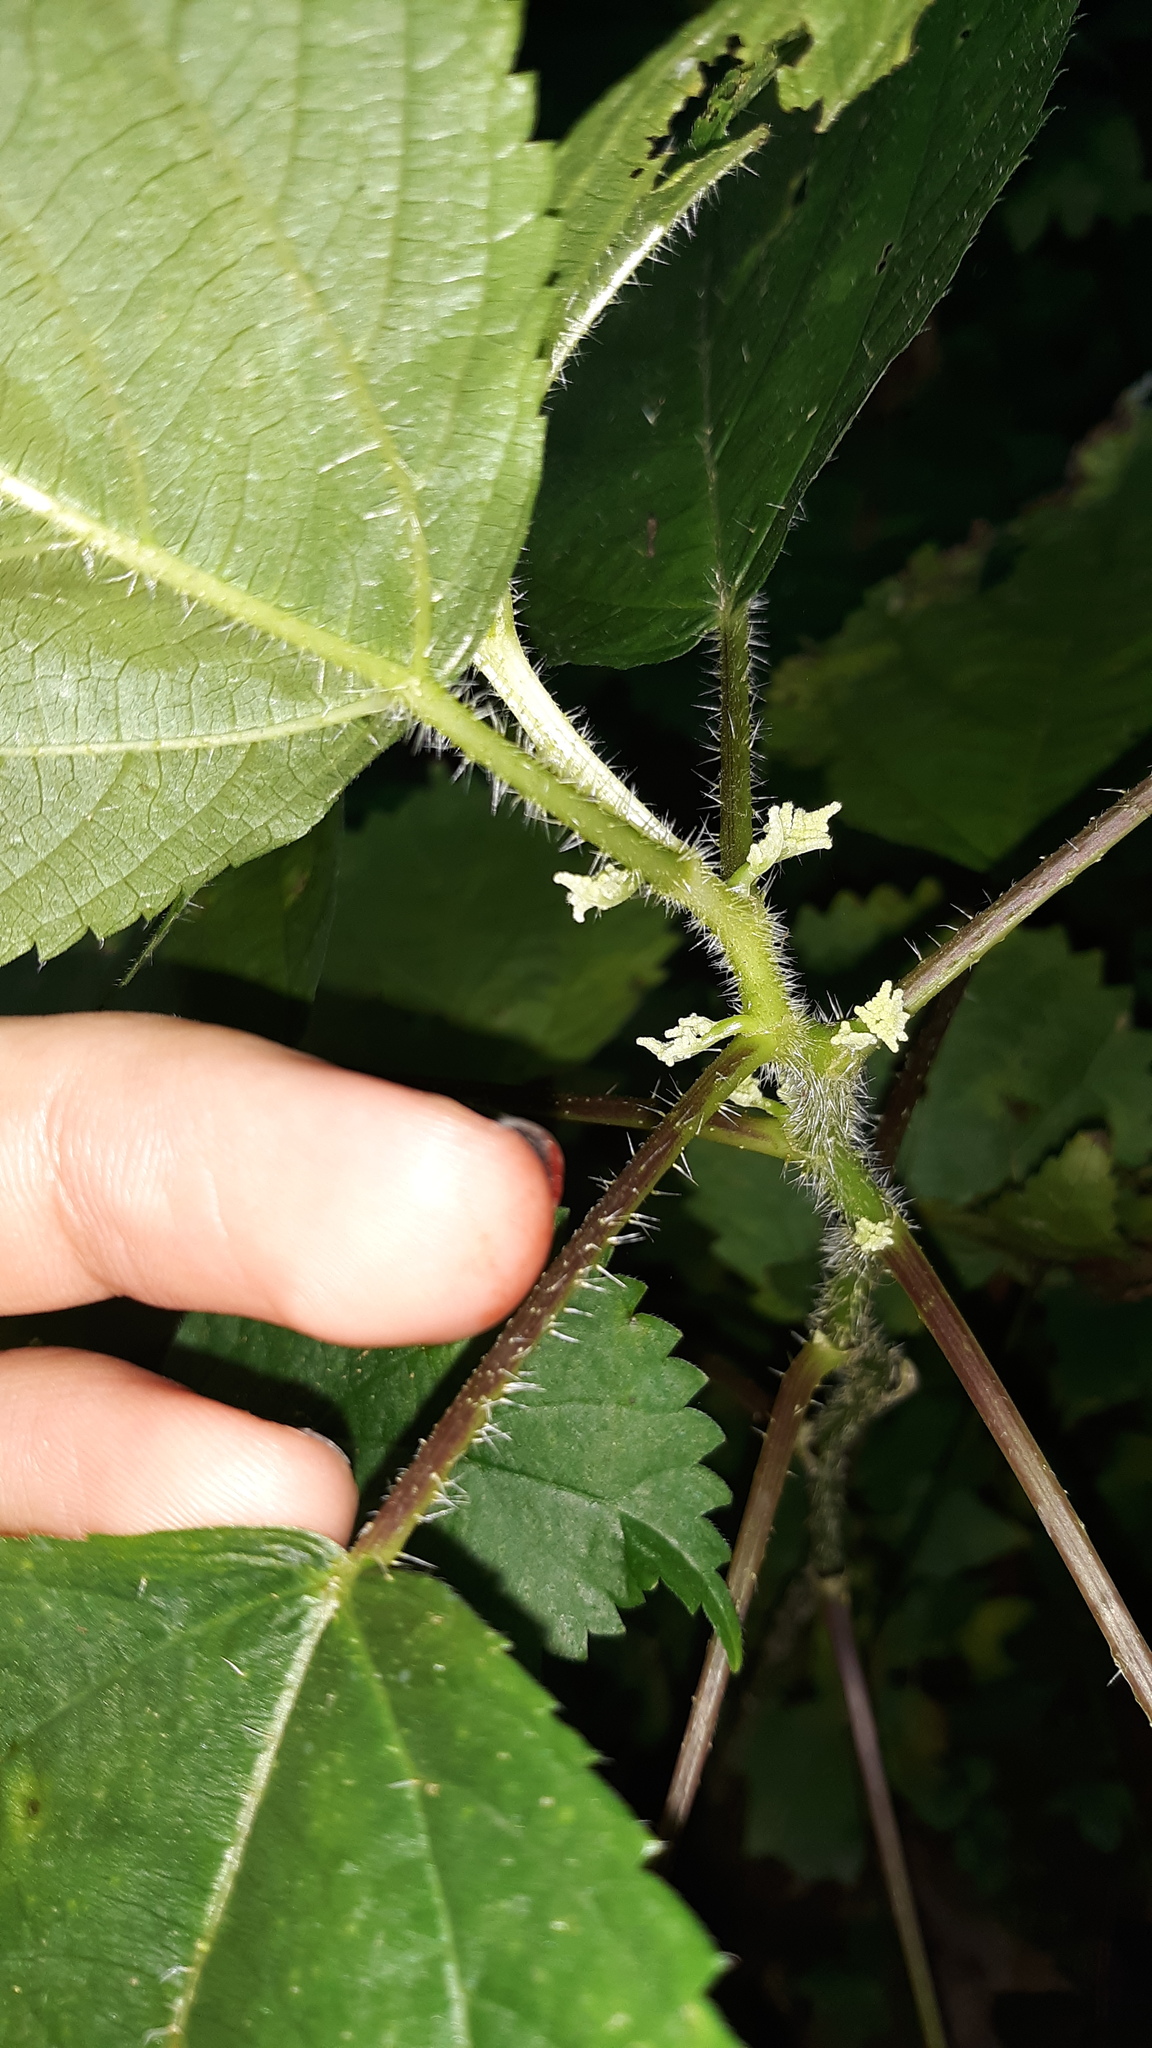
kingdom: Plantae
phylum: Tracheophyta
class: Magnoliopsida
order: Rosales
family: Urticaceae
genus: Laportea
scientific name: Laportea canadensis
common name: Canada nettle
